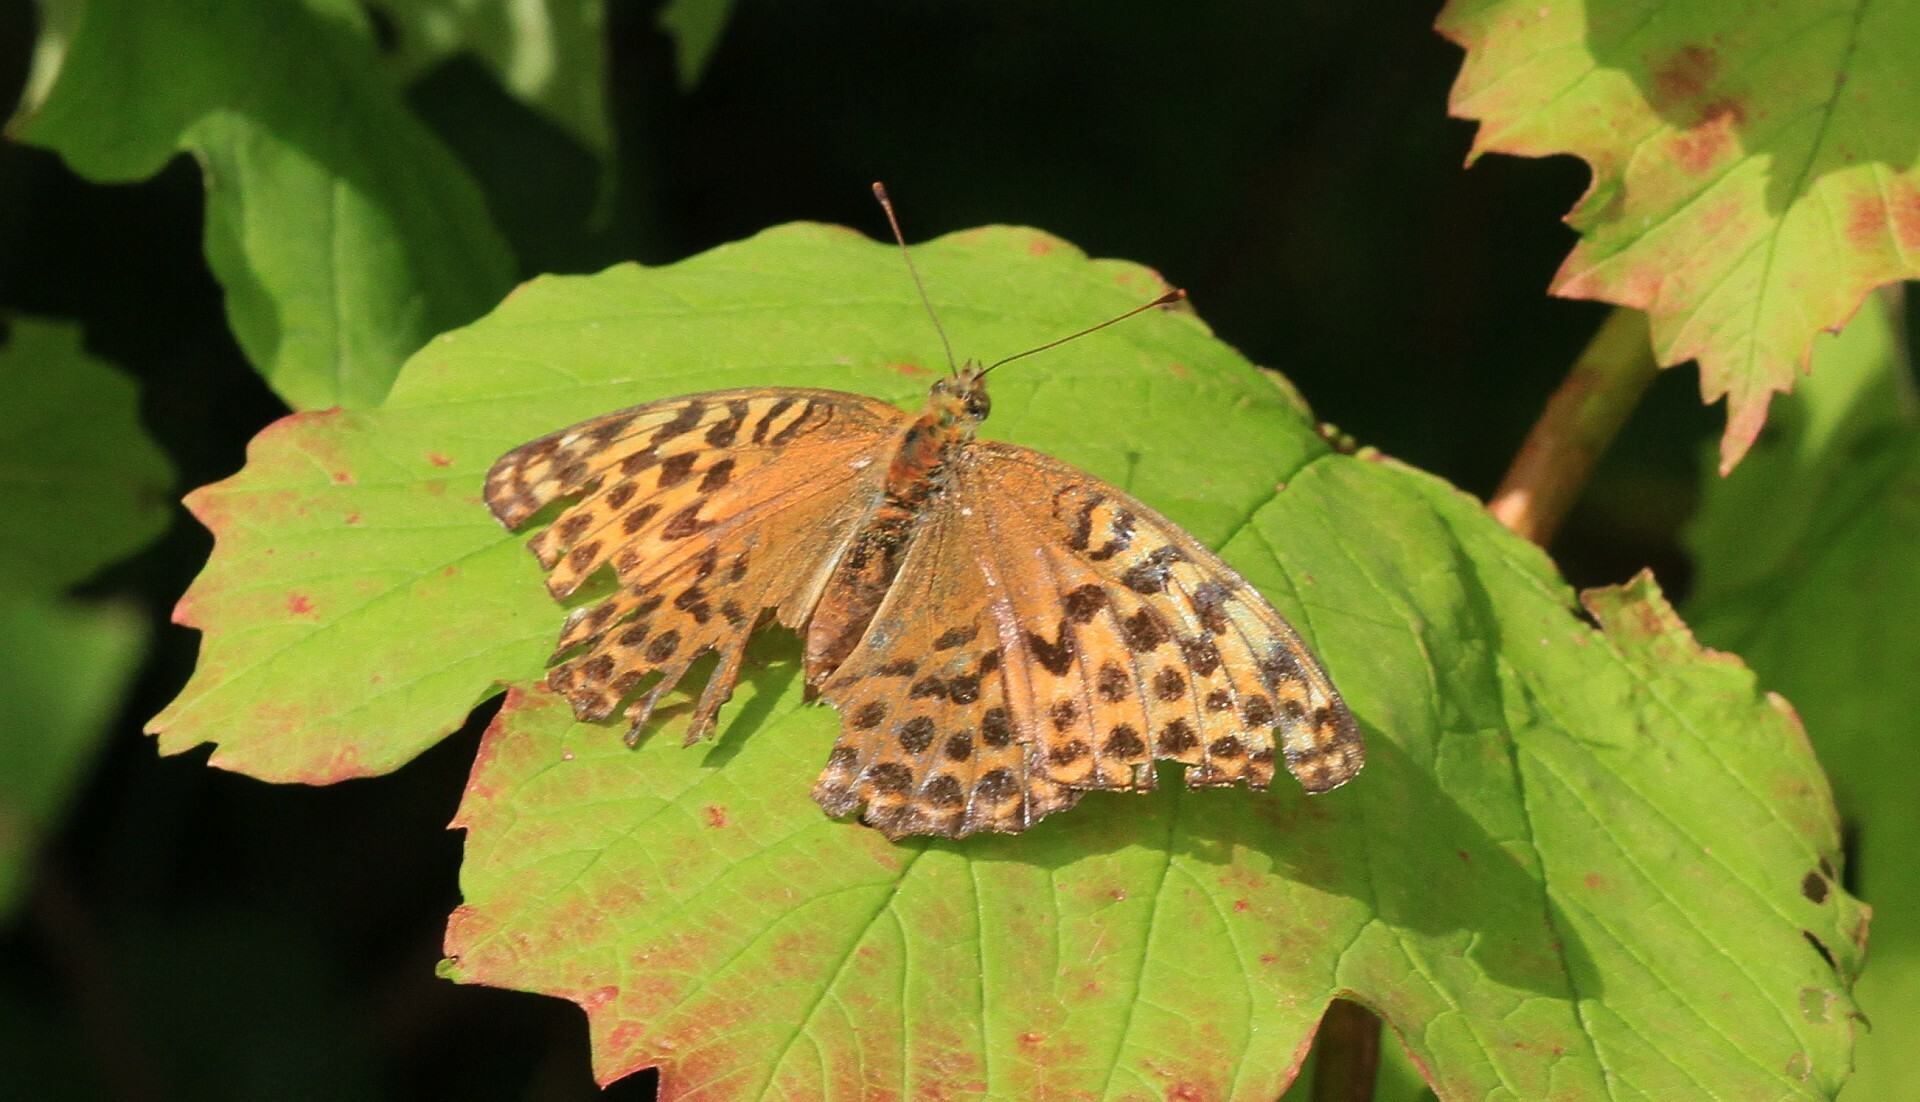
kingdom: Animalia
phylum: Arthropoda
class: Insecta
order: Lepidoptera
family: Nymphalidae
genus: Argynnis
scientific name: Argynnis paphia
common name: Silver-washed fritillary
